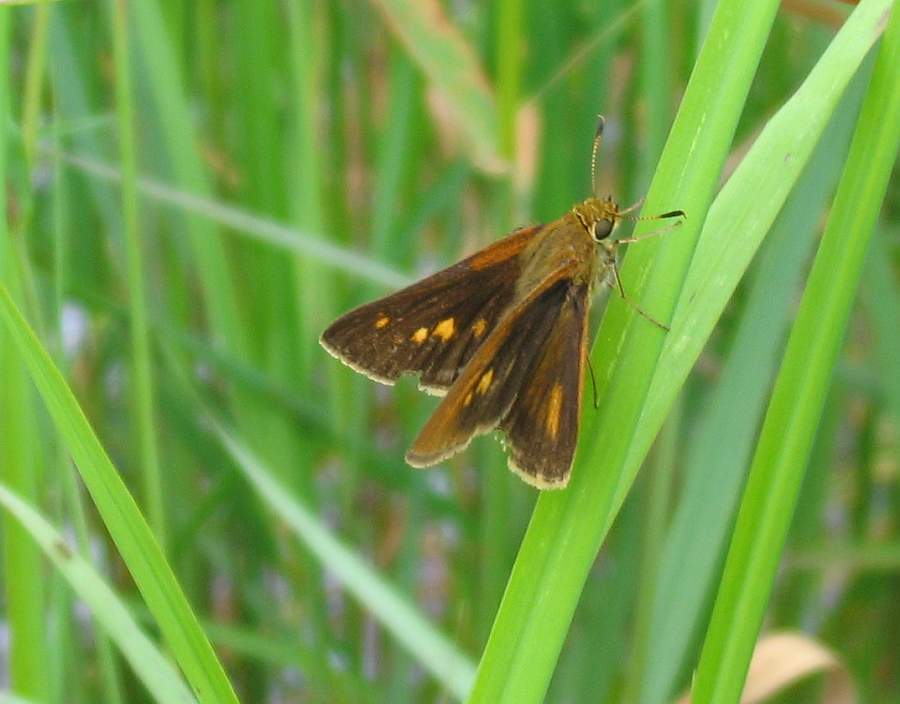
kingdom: Animalia
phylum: Arthropoda
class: Insecta
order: Lepidoptera
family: Hesperiidae
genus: Euphyes
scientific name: Euphyes dion
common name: Dion skipper
